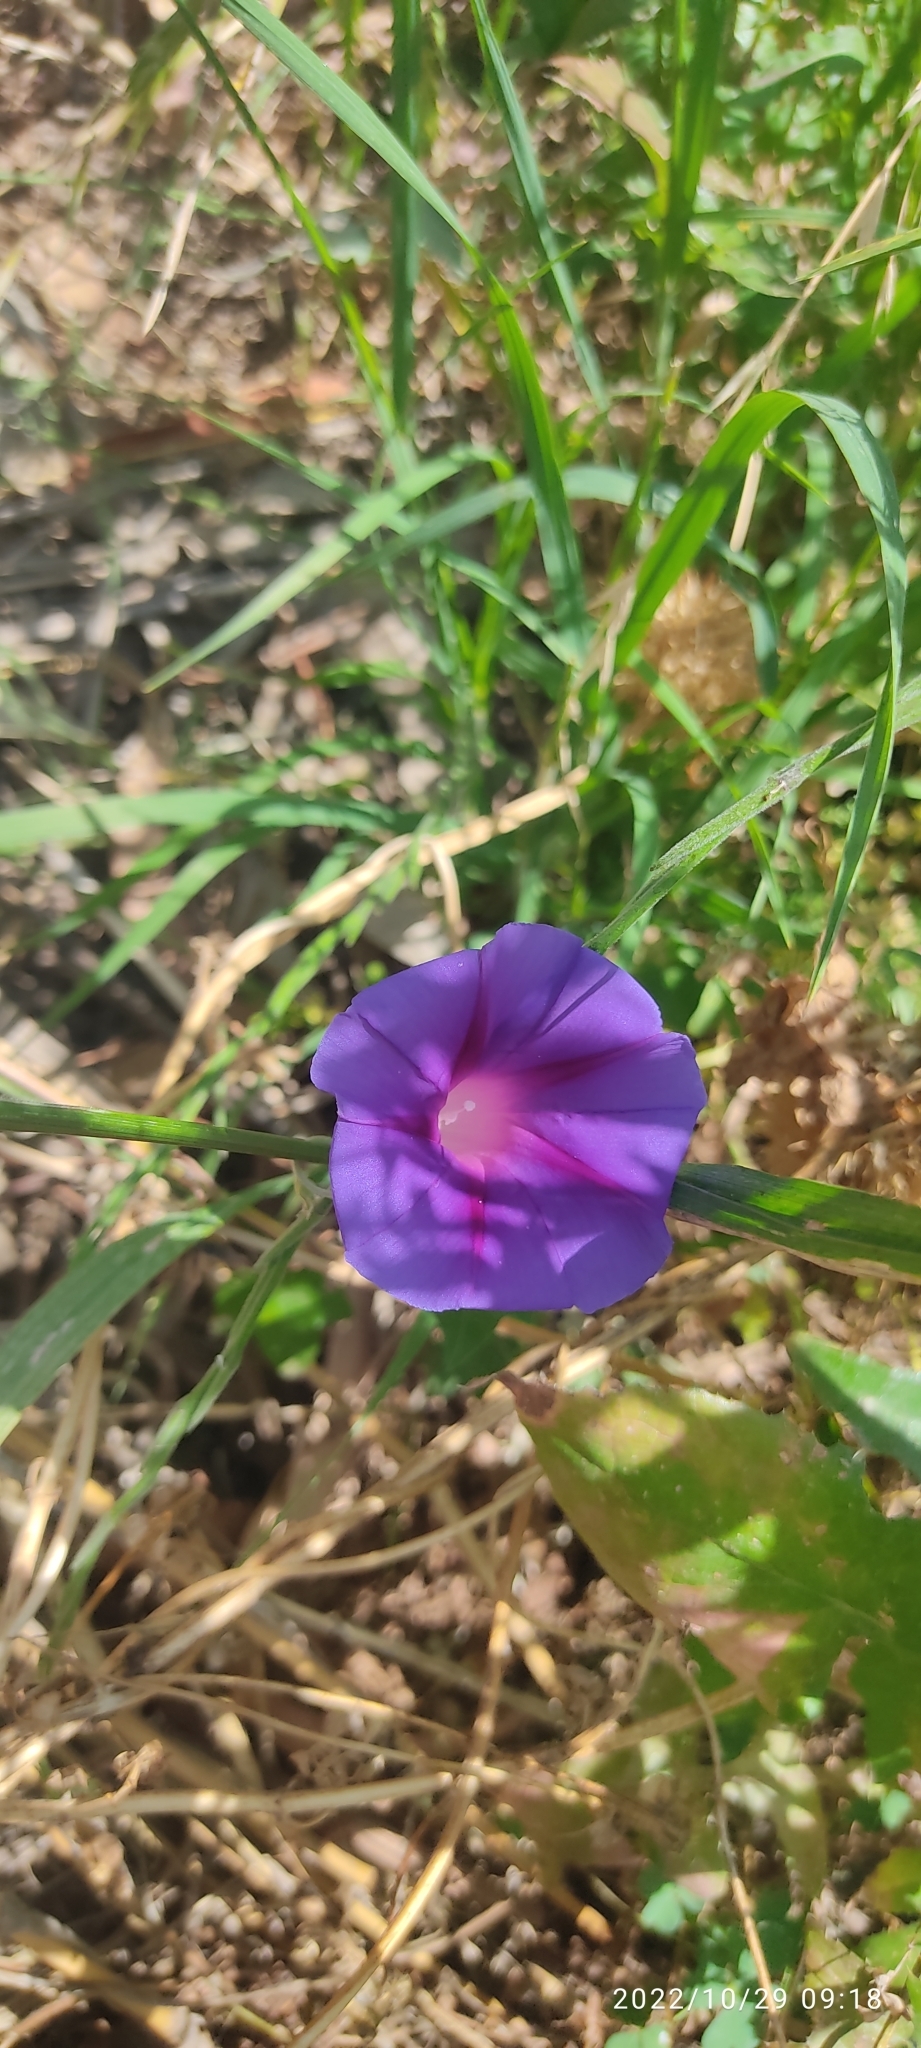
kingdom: Plantae
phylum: Tracheophyta
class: Magnoliopsida
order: Solanales
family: Convolvulaceae
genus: Ipomoea
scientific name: Ipomoea purpurea
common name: Common morning-glory
